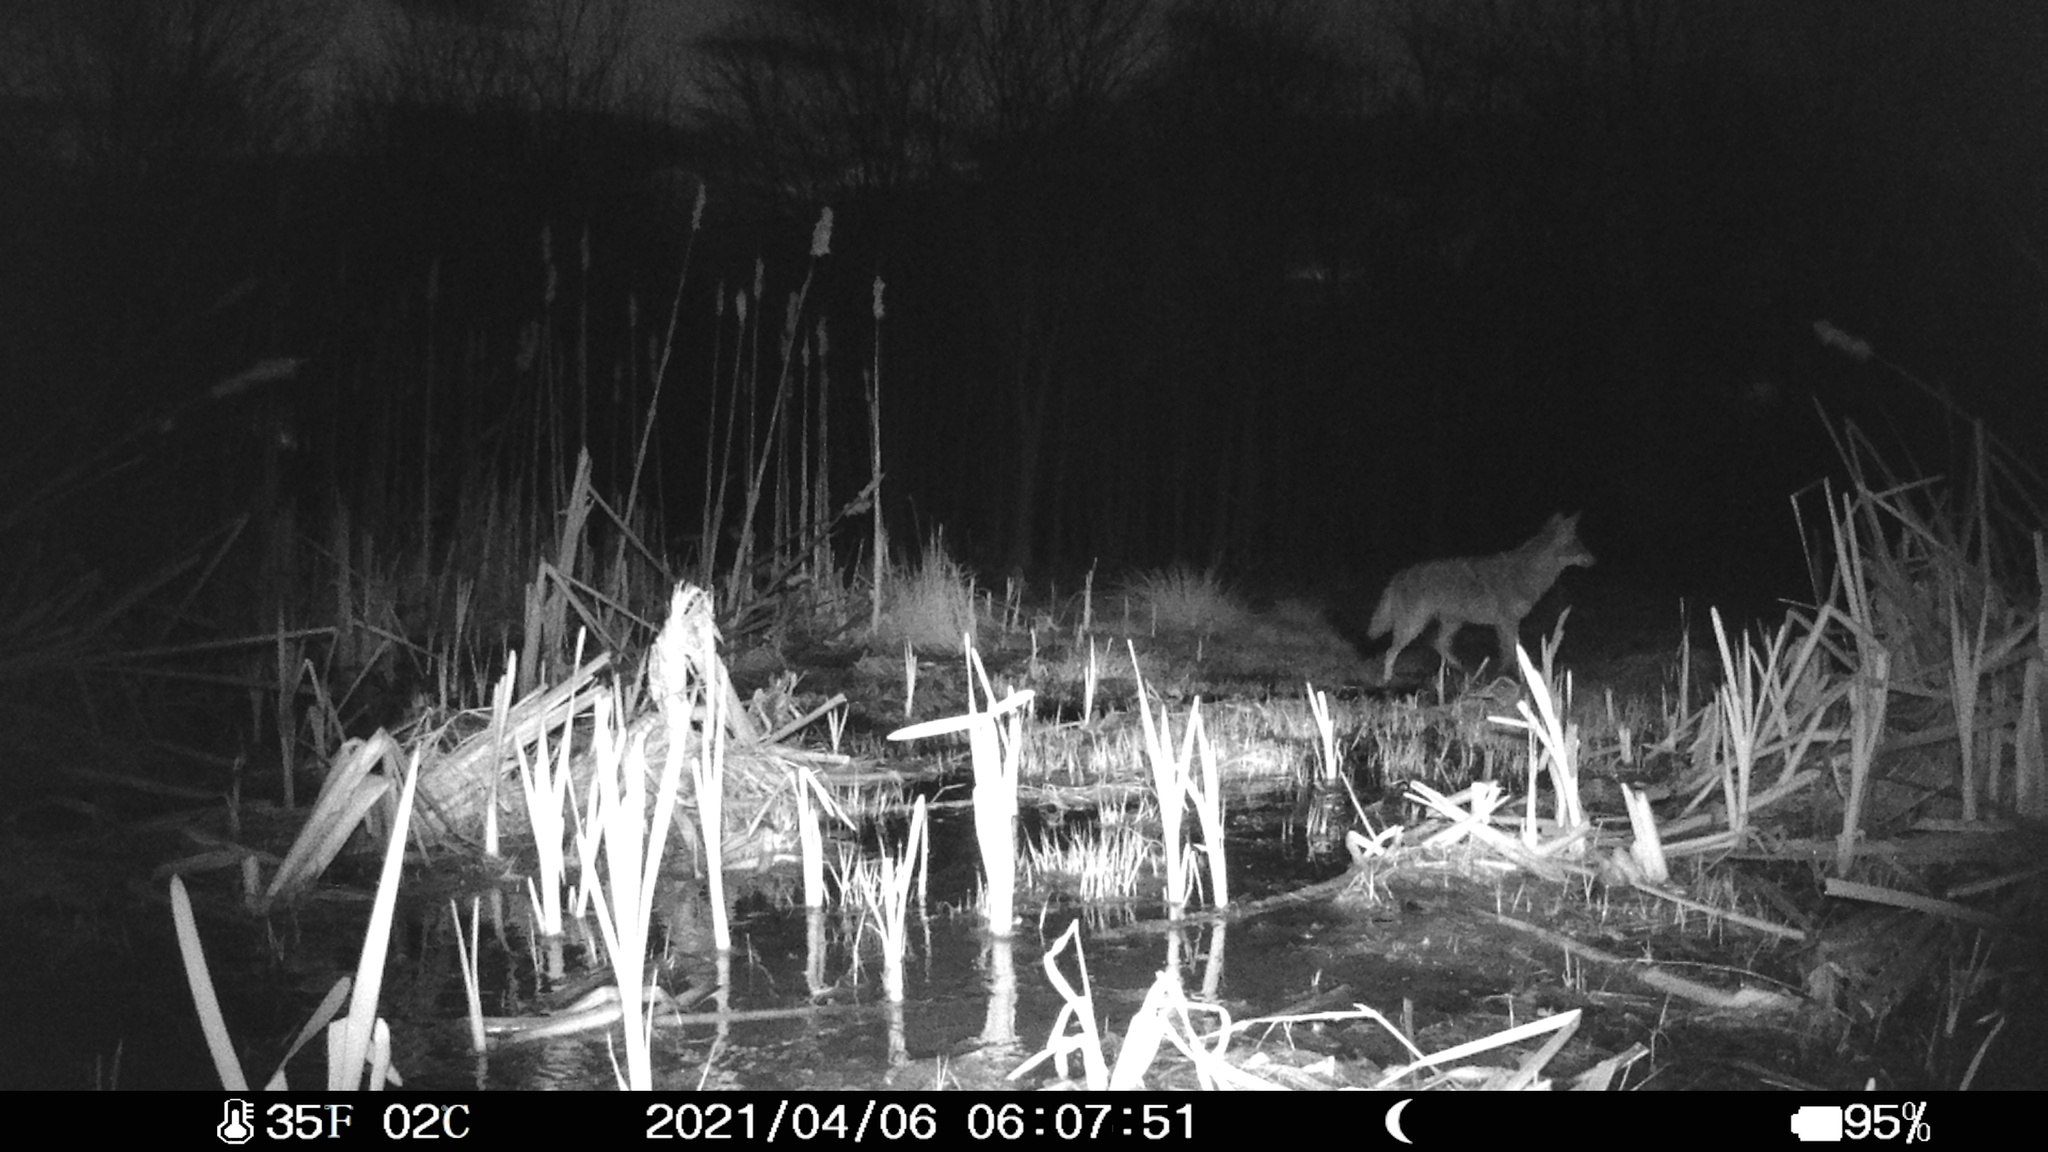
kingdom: Animalia
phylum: Chordata
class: Mammalia
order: Carnivora
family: Canidae
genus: Canis
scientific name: Canis latrans
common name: Coyote
